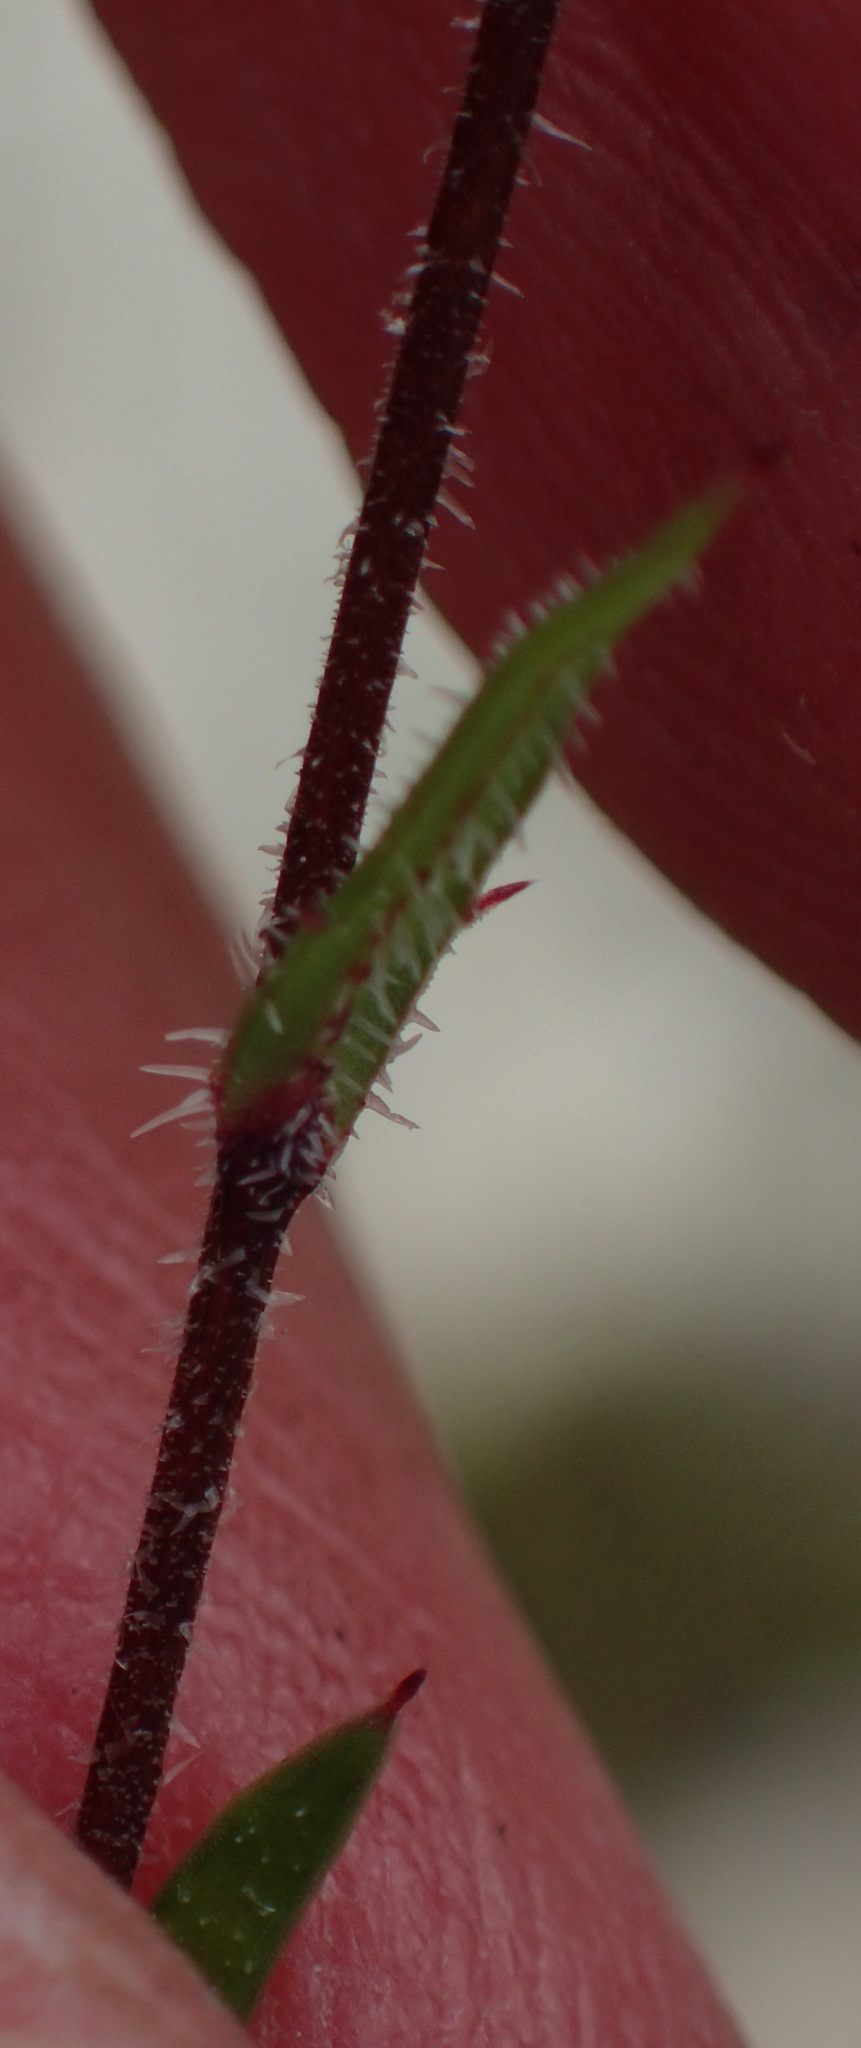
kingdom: Plantae
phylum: Tracheophyta
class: Magnoliopsida
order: Asterales
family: Campanulaceae
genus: Prismatocarpus
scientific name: Prismatocarpus rogersii
